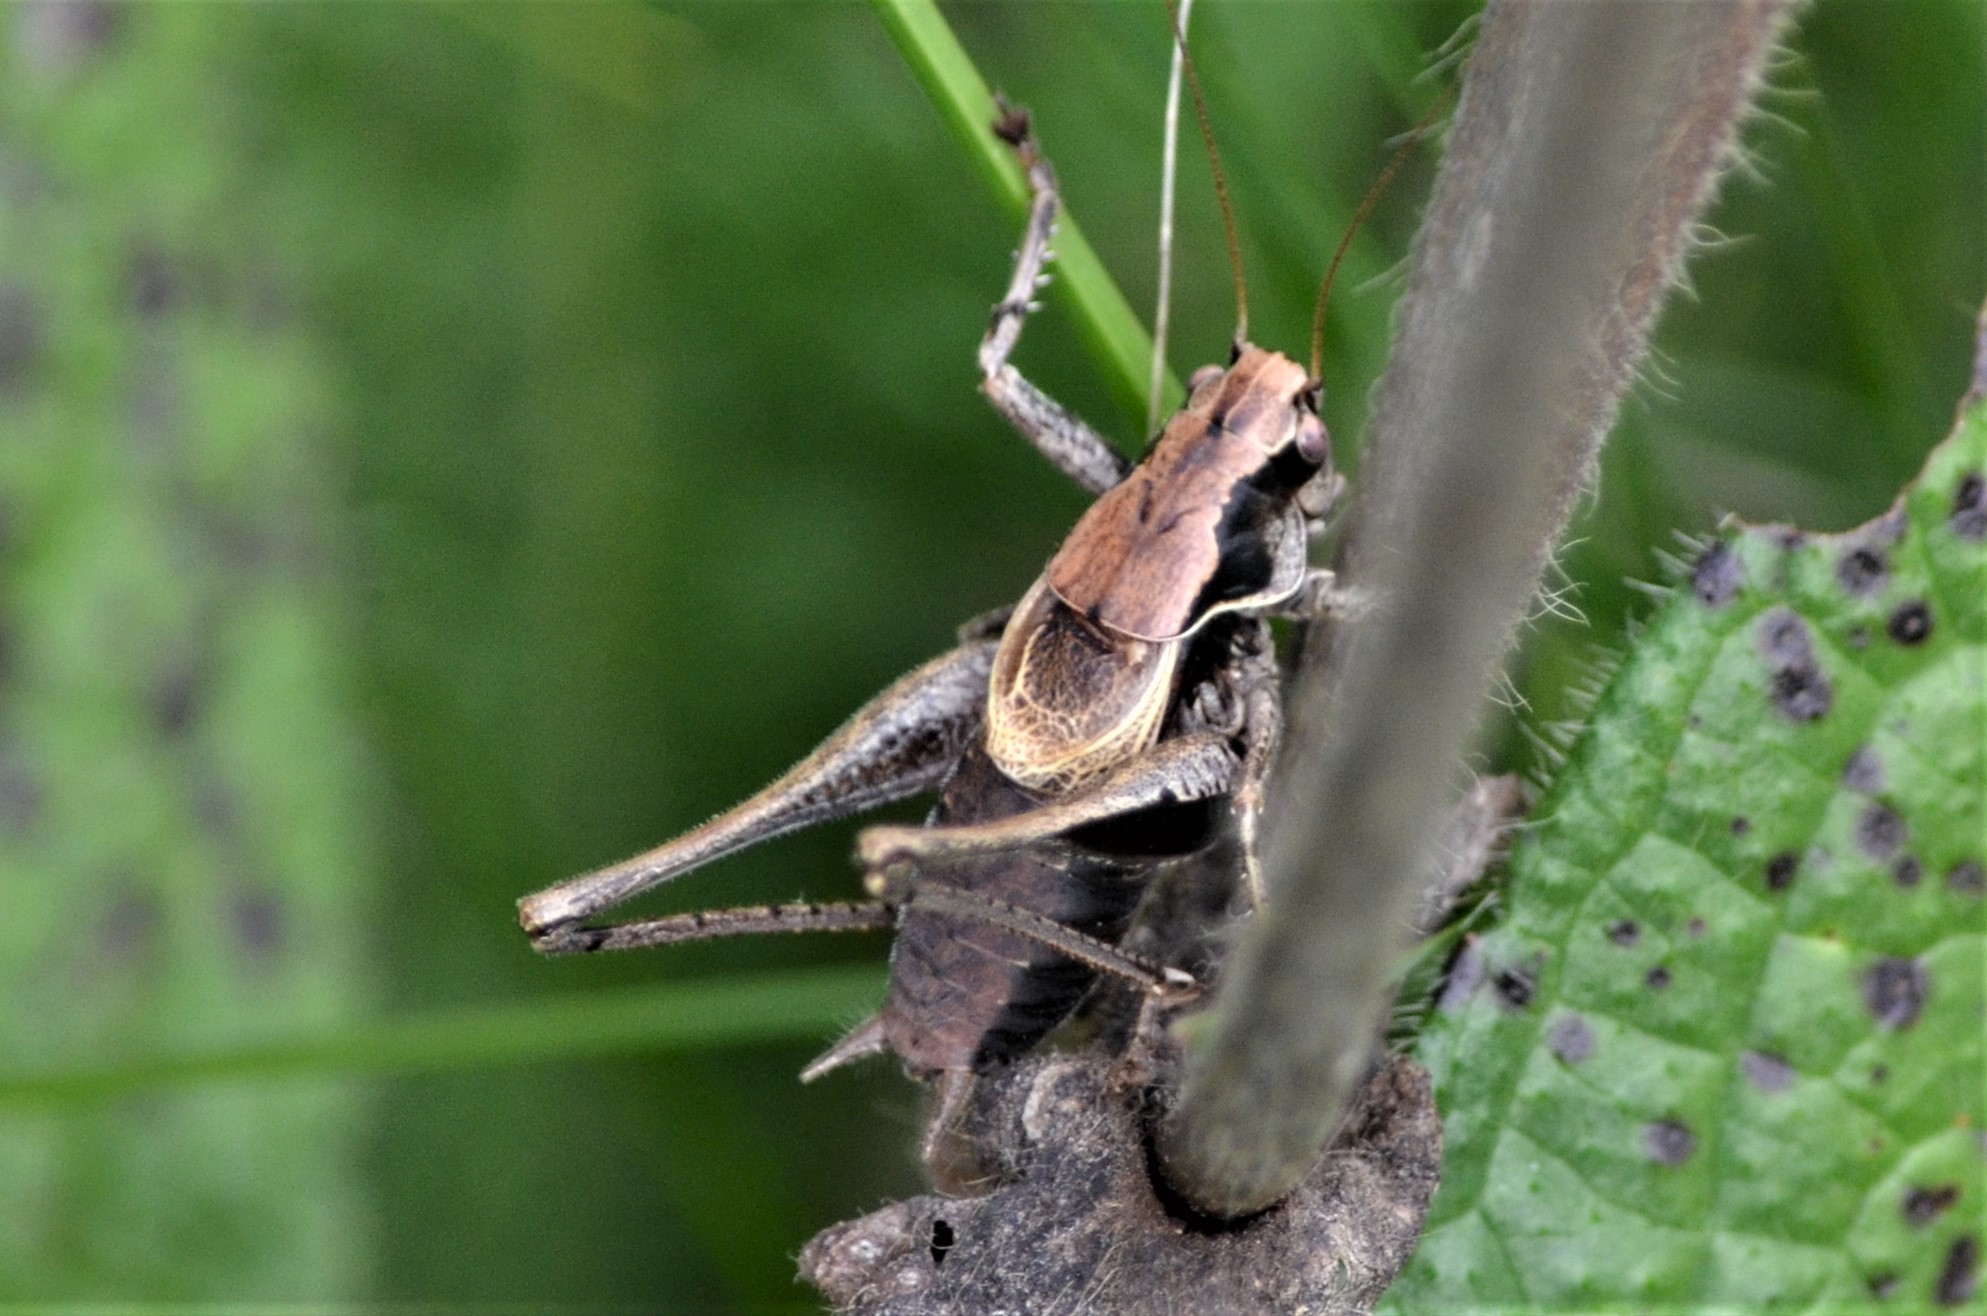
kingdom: Animalia
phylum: Arthropoda
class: Insecta
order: Orthoptera
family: Tettigoniidae
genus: Pholidoptera
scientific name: Pholidoptera griseoaptera
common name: Dark bush-cricket
